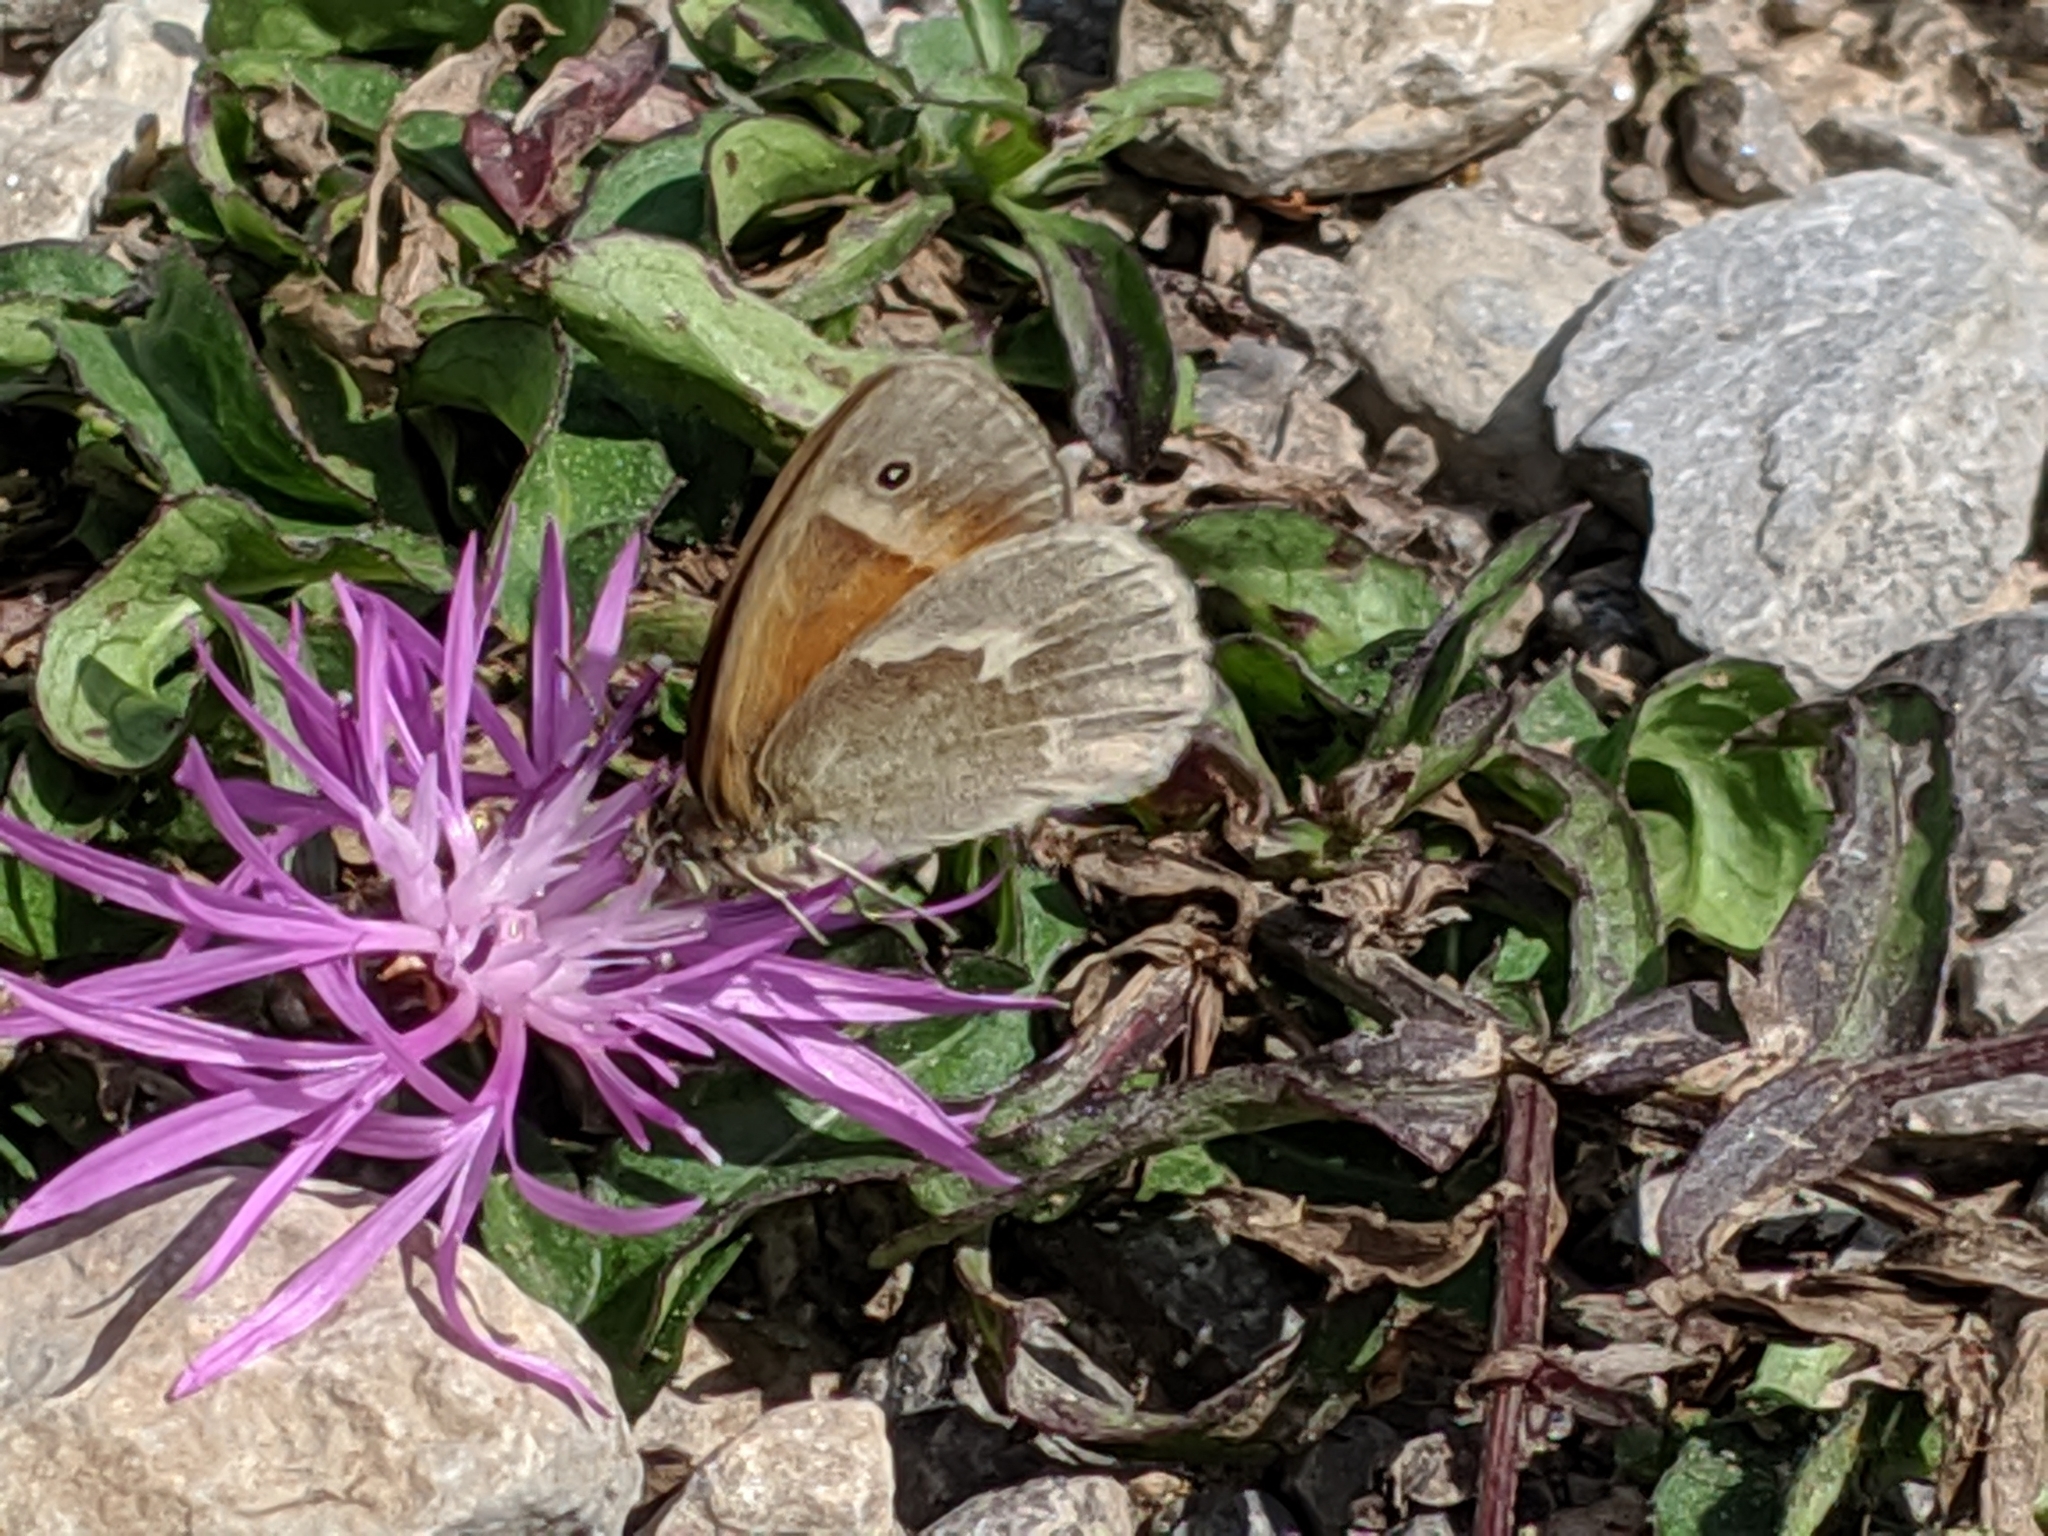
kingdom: Animalia
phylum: Arthropoda
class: Insecta
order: Lepidoptera
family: Nymphalidae
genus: Coenonympha
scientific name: Coenonympha california
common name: Common ringlet
